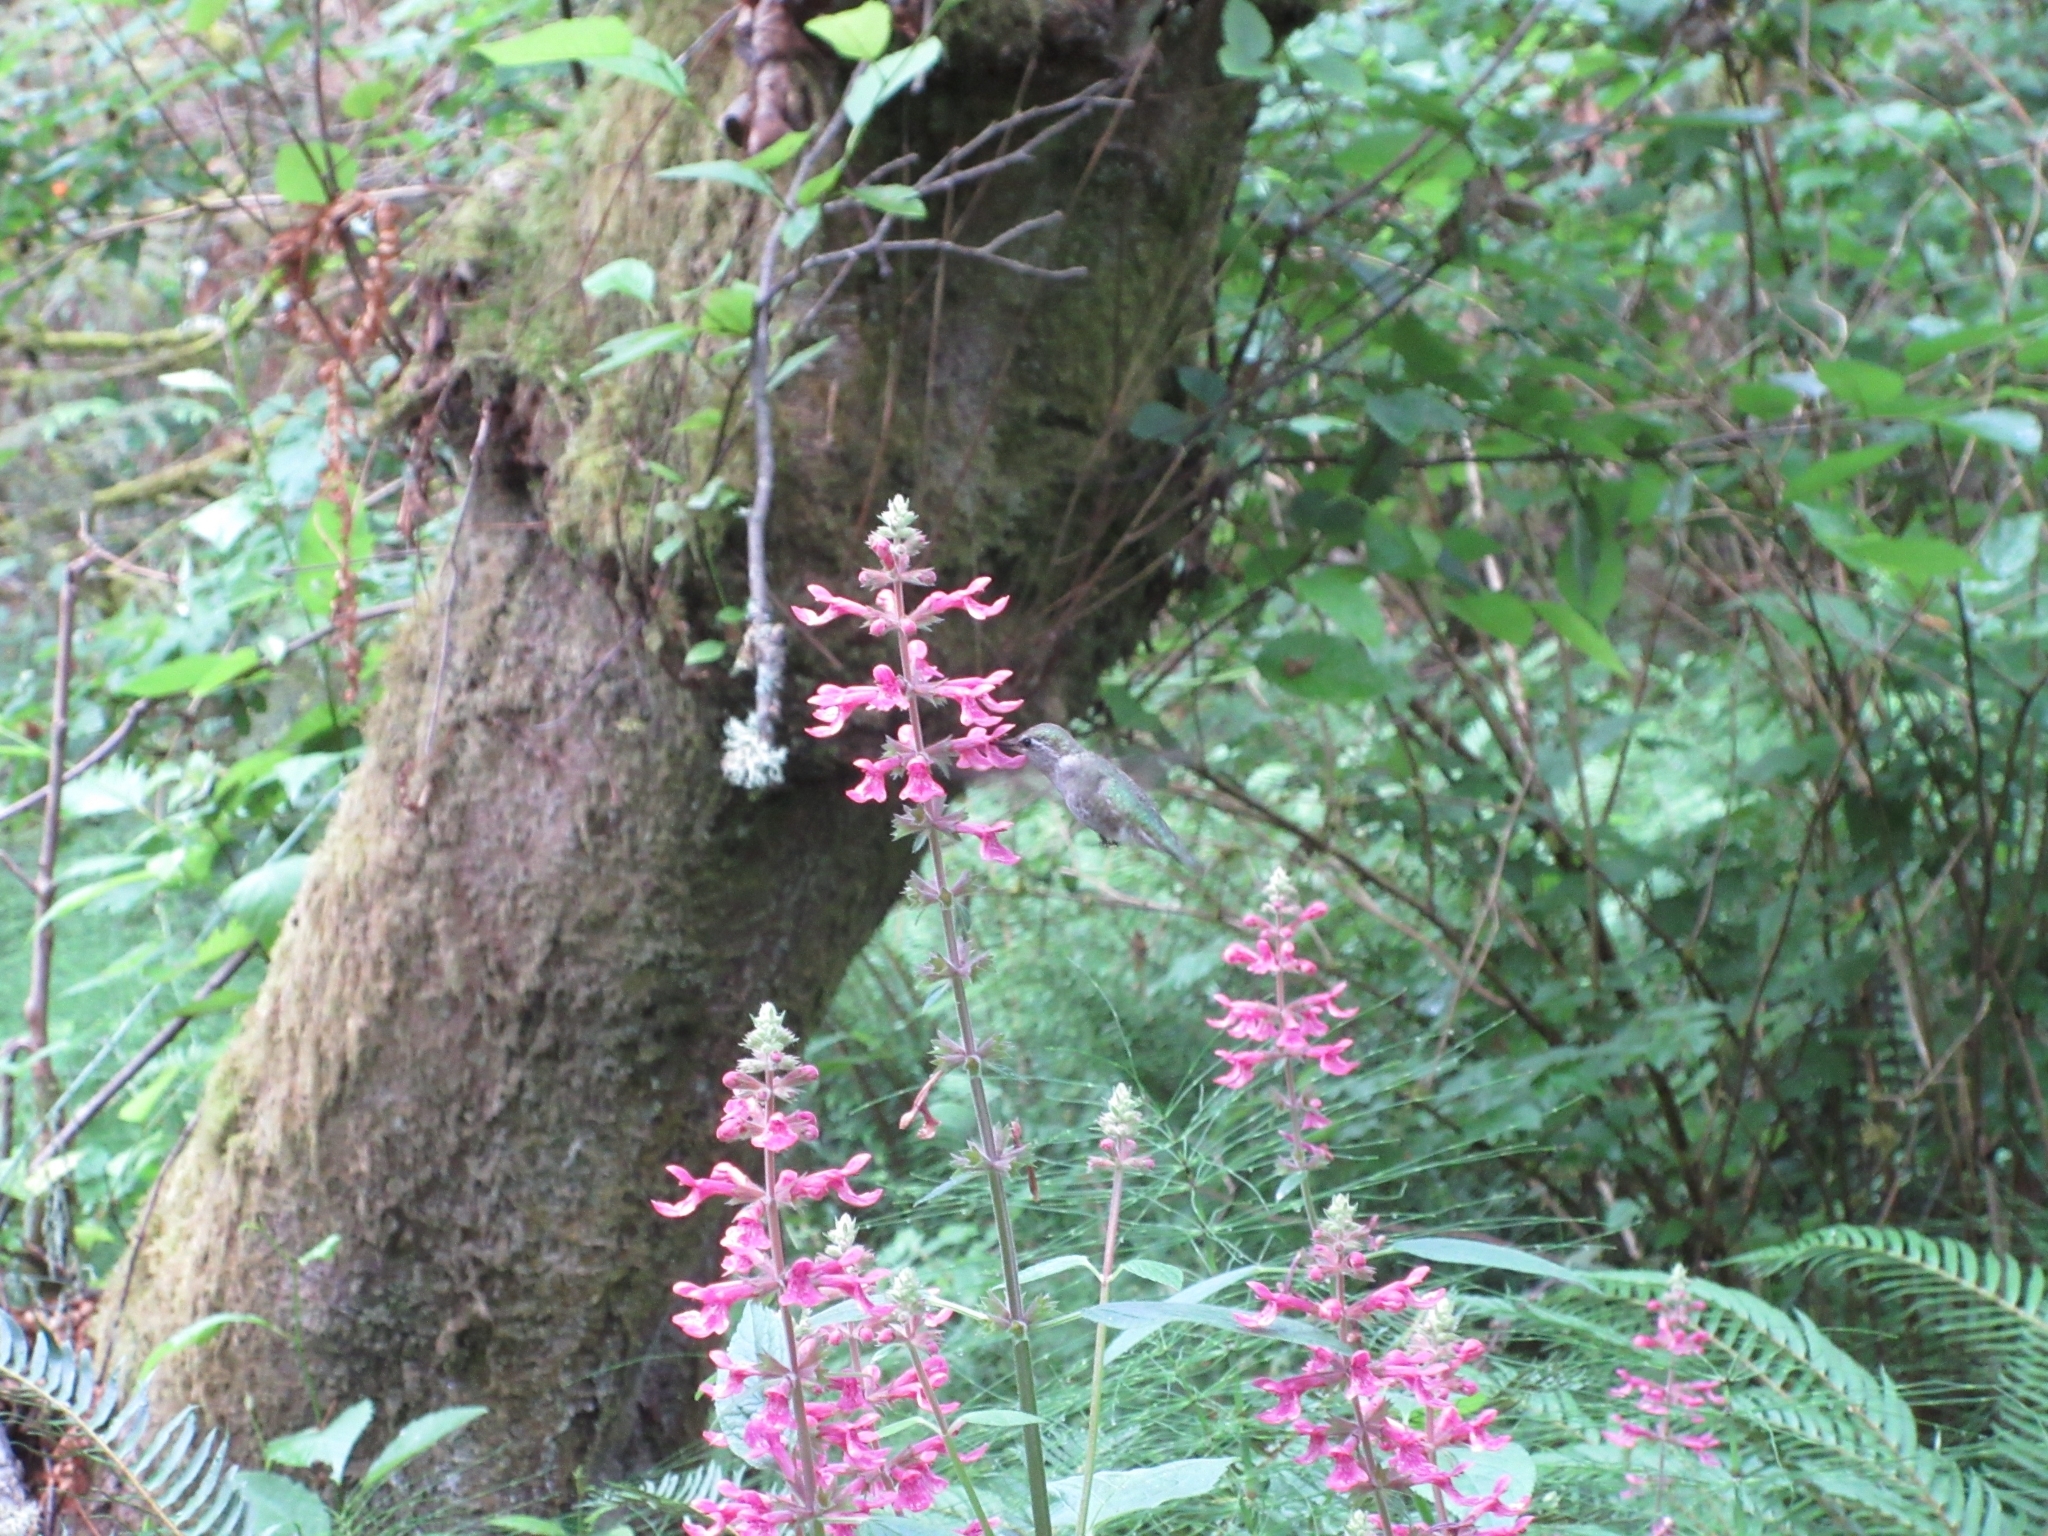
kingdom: Animalia
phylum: Chordata
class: Aves
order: Apodiformes
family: Trochilidae
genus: Calypte
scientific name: Calypte anna
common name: Anna's hummingbird
